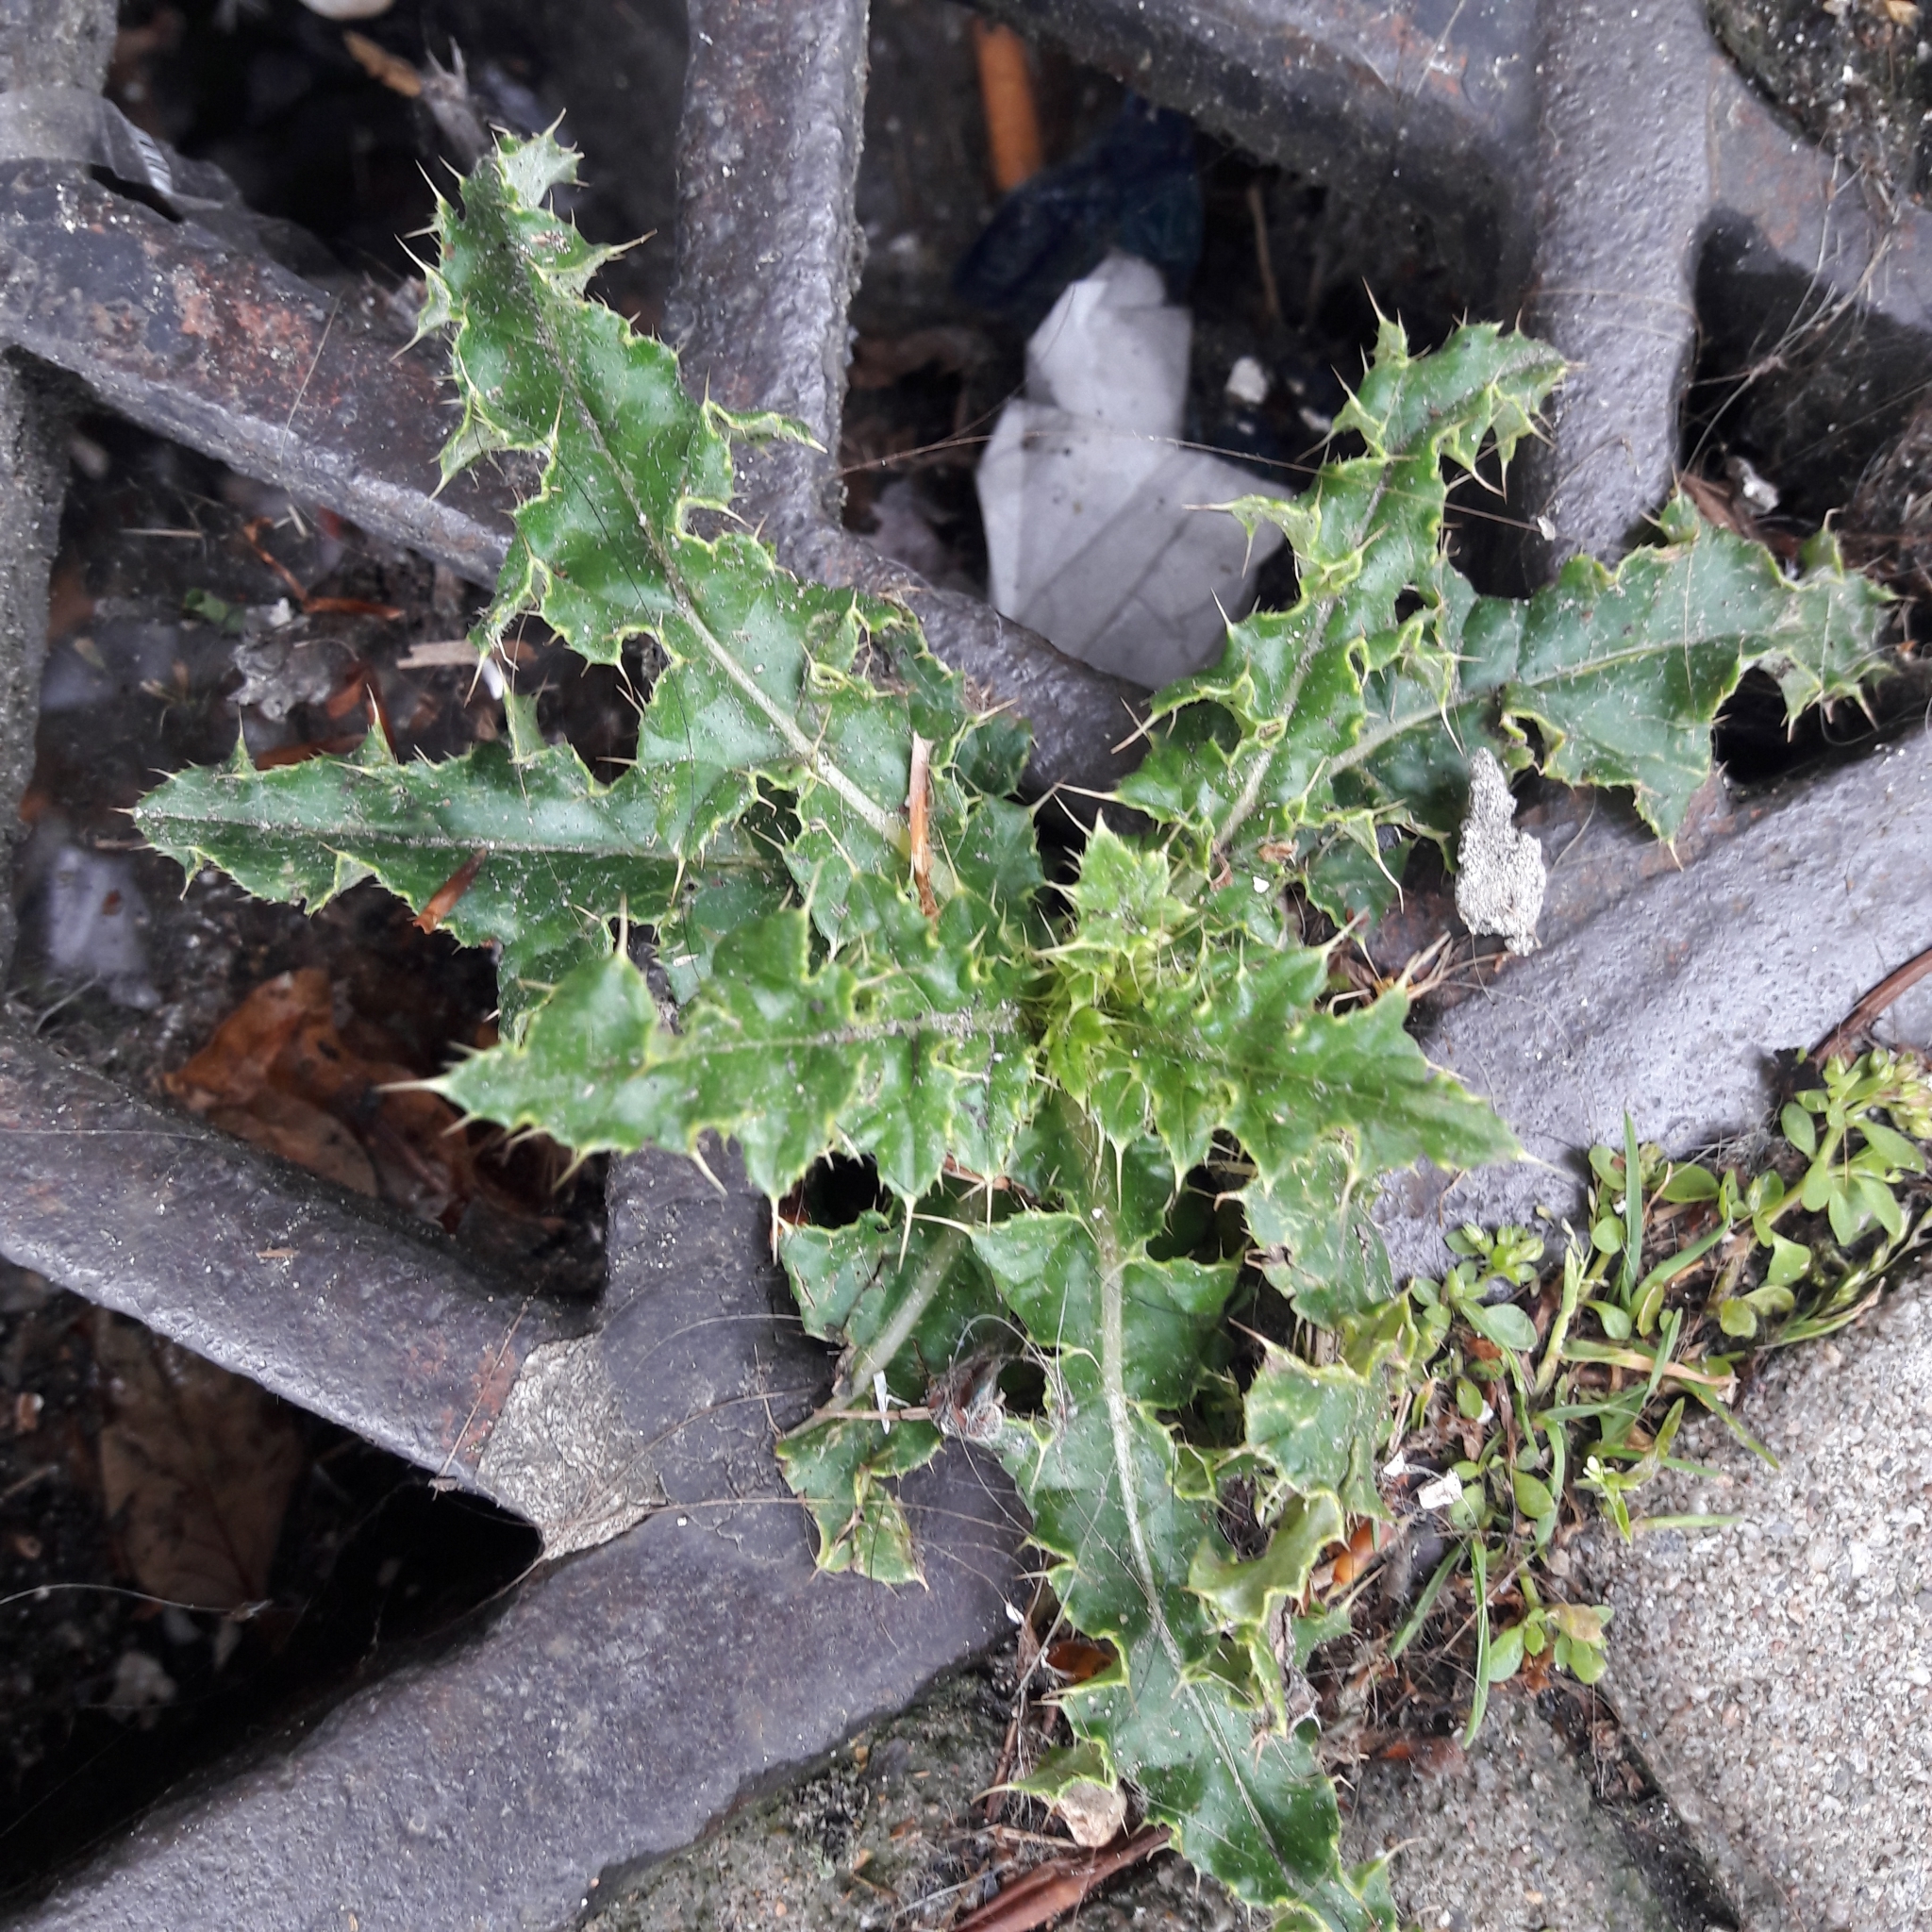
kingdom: Plantae
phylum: Tracheophyta
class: Magnoliopsida
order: Asterales
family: Asteraceae
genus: Cirsium
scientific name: Cirsium arvense
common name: Creeping thistle
